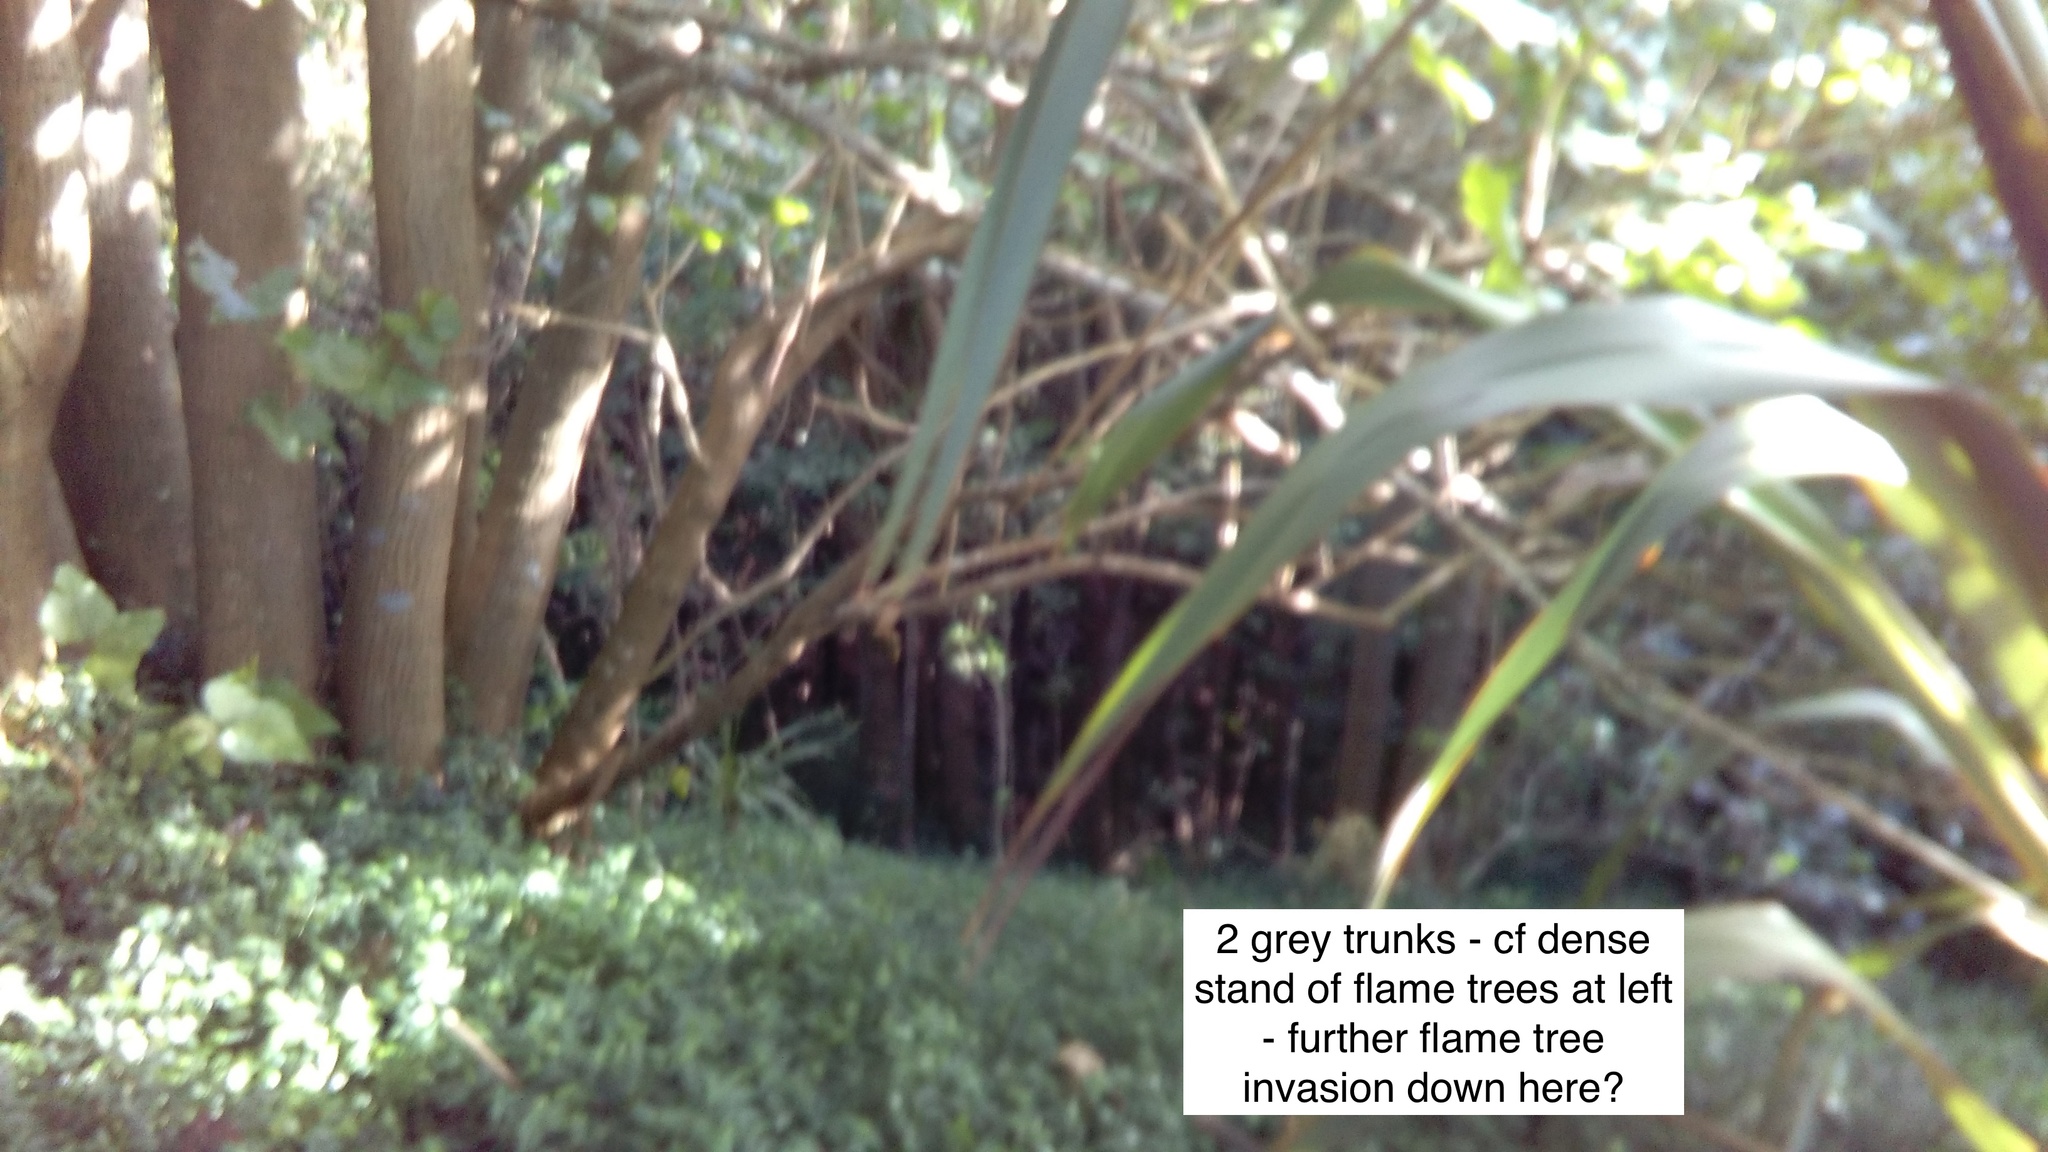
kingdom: Plantae
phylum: Tracheophyta
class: Magnoliopsida
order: Fabales
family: Fabaceae
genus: Erythrina
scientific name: Erythrina sykesii
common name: Coraltree
